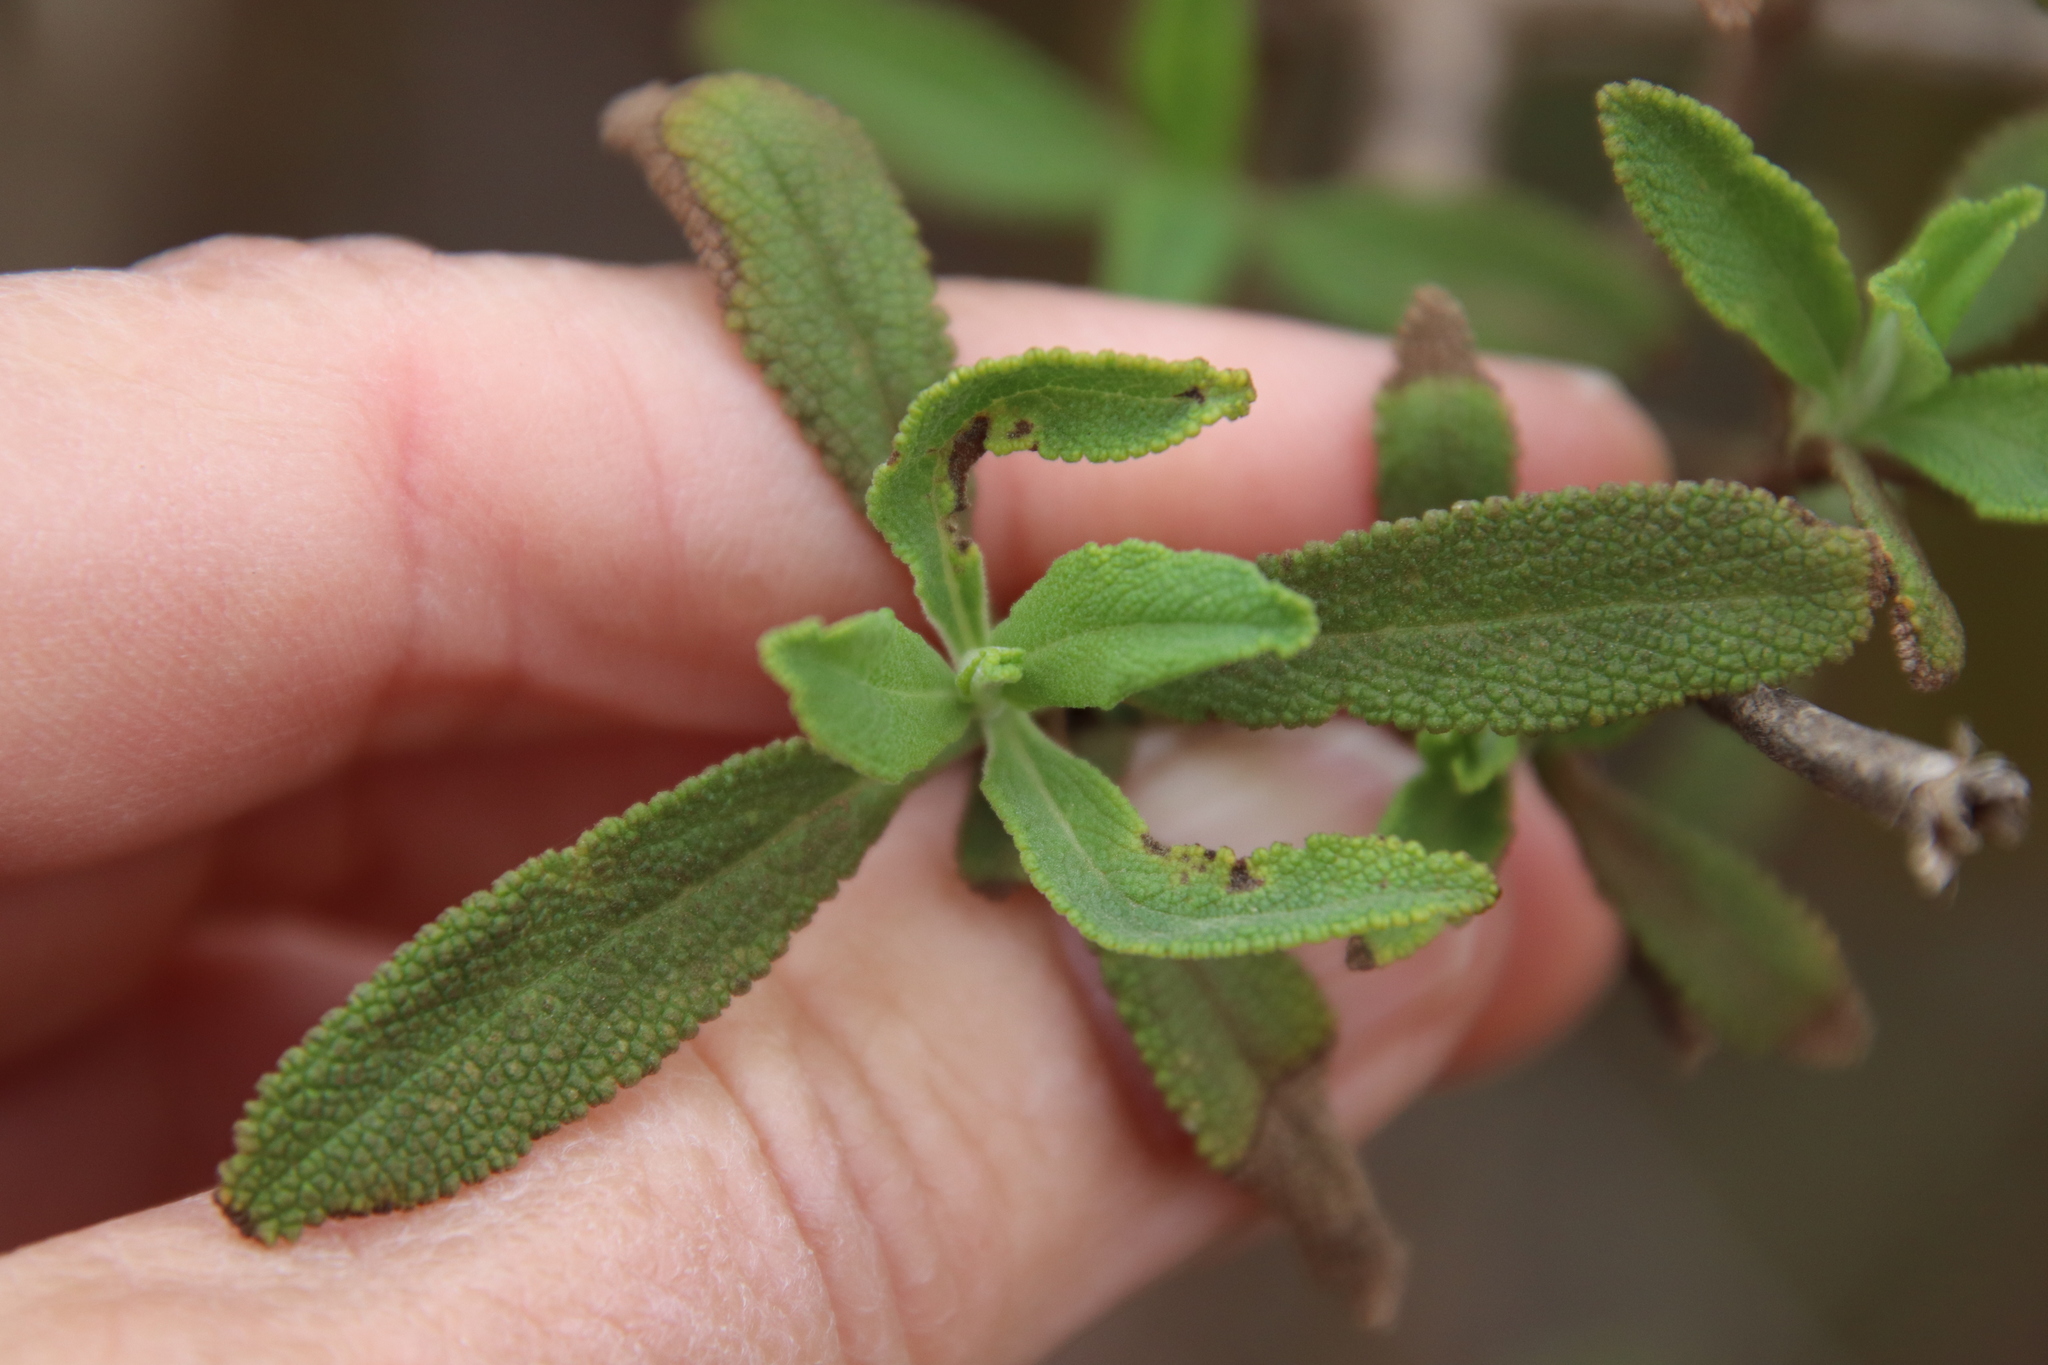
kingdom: Plantae
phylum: Tracheophyta
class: Magnoliopsida
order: Lamiales
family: Lamiaceae
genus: Salvia
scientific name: Salvia mellifera
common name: Black sage
